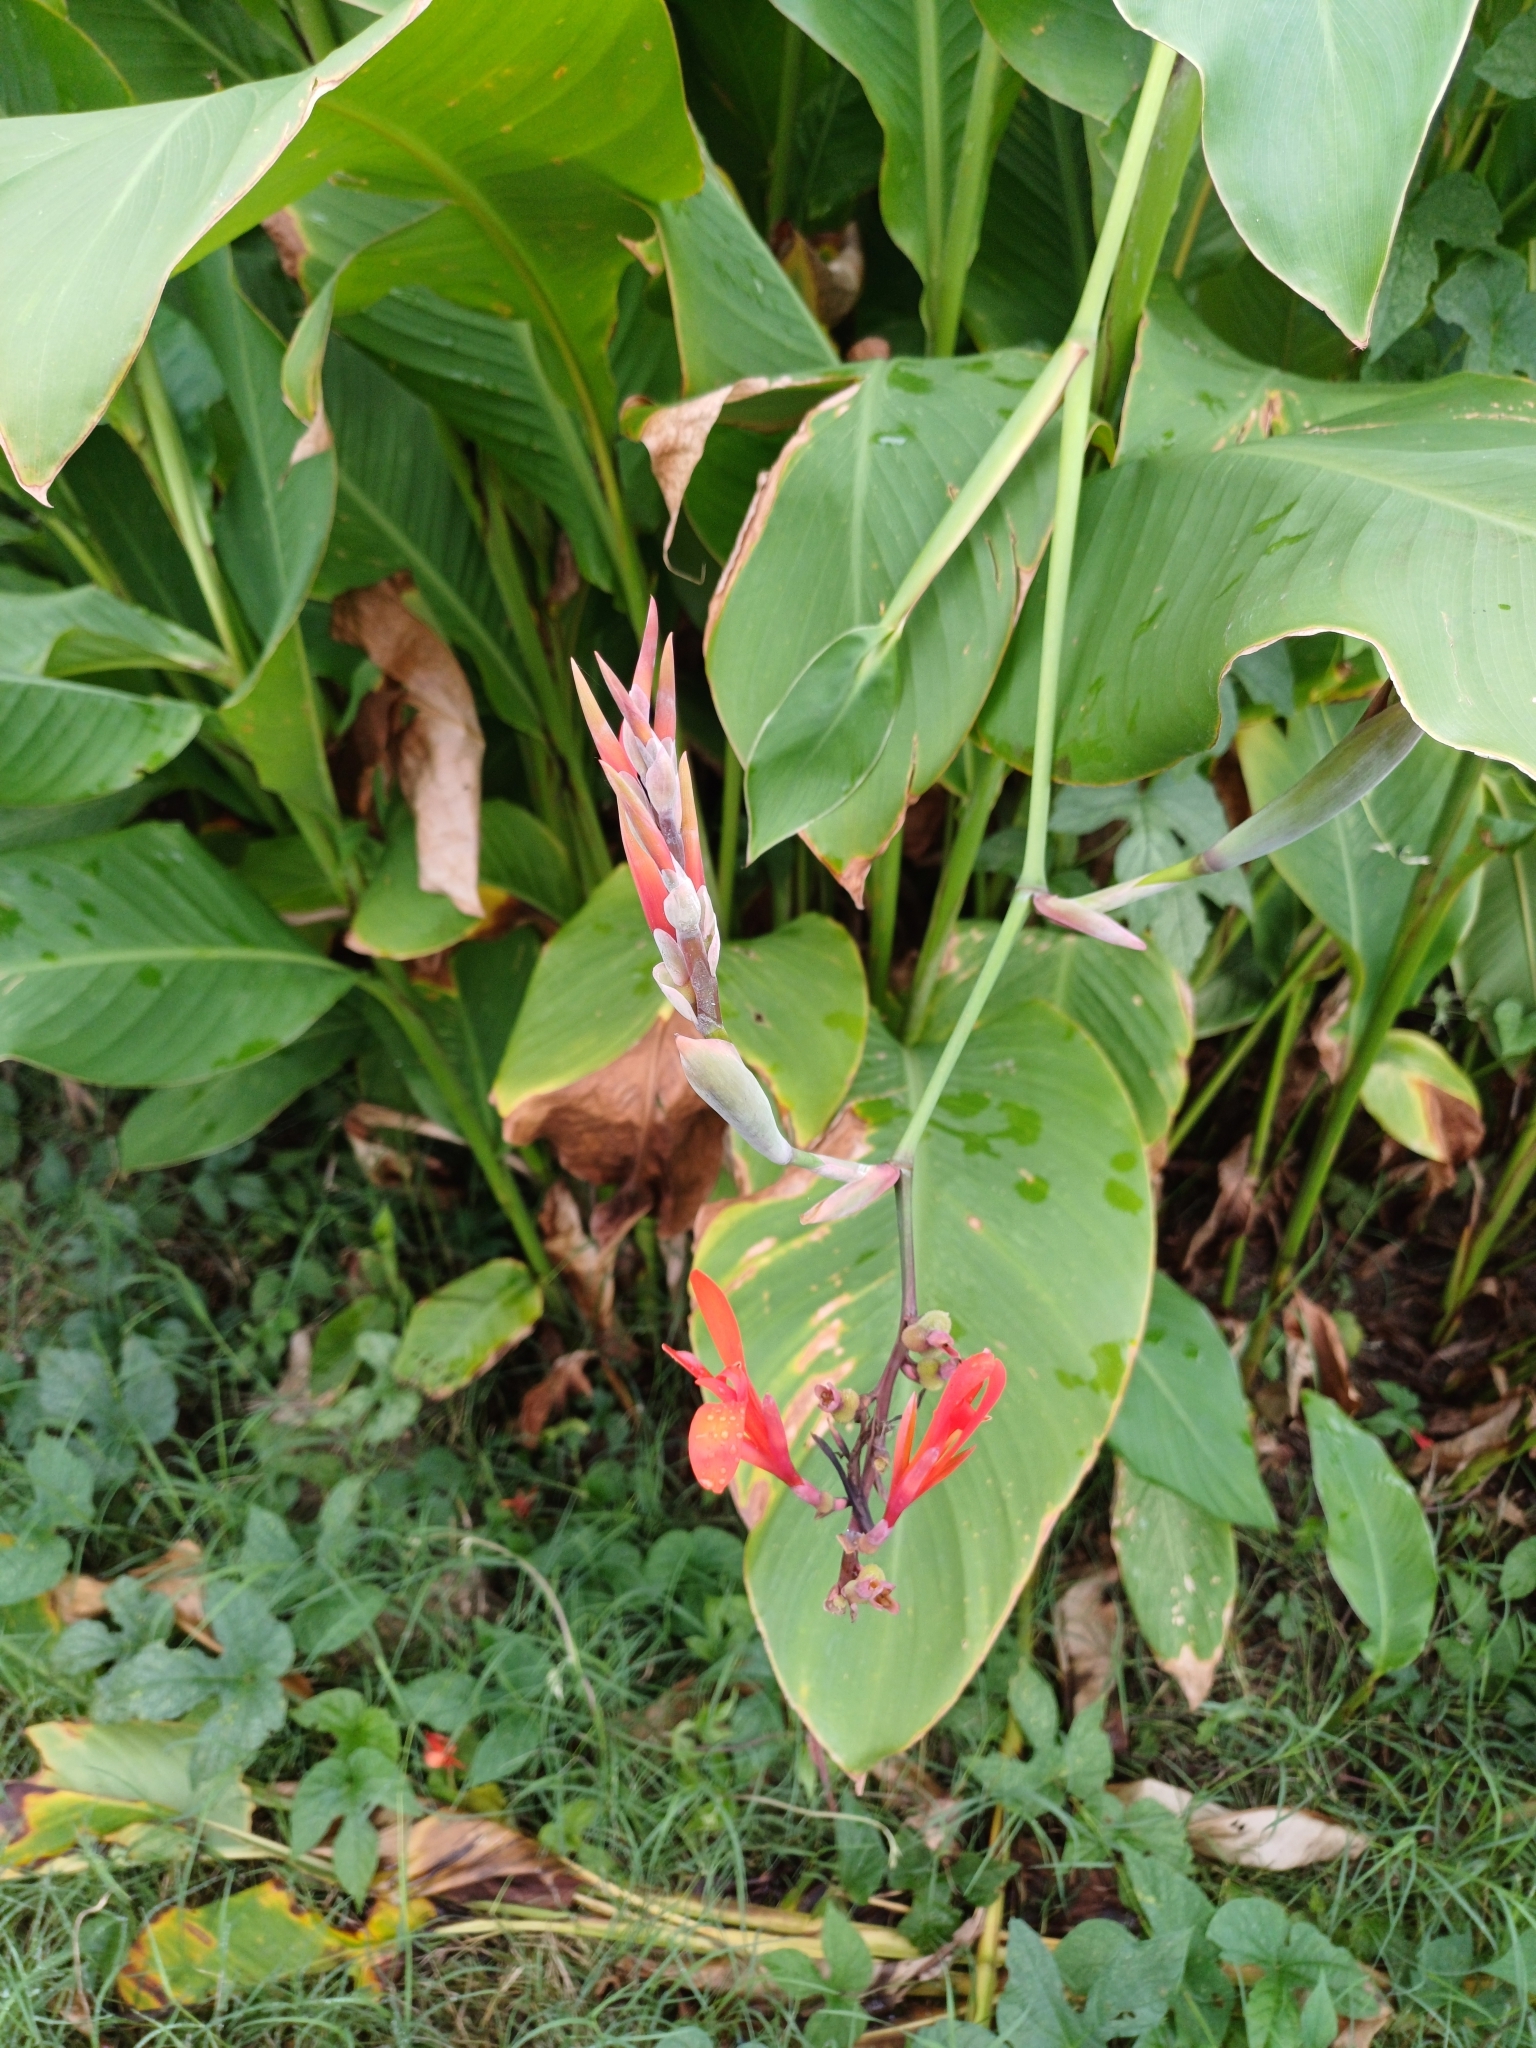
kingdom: Plantae
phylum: Tracheophyta
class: Liliopsida
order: Zingiberales
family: Cannaceae
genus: Canna
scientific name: Canna indica
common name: Indian shot
